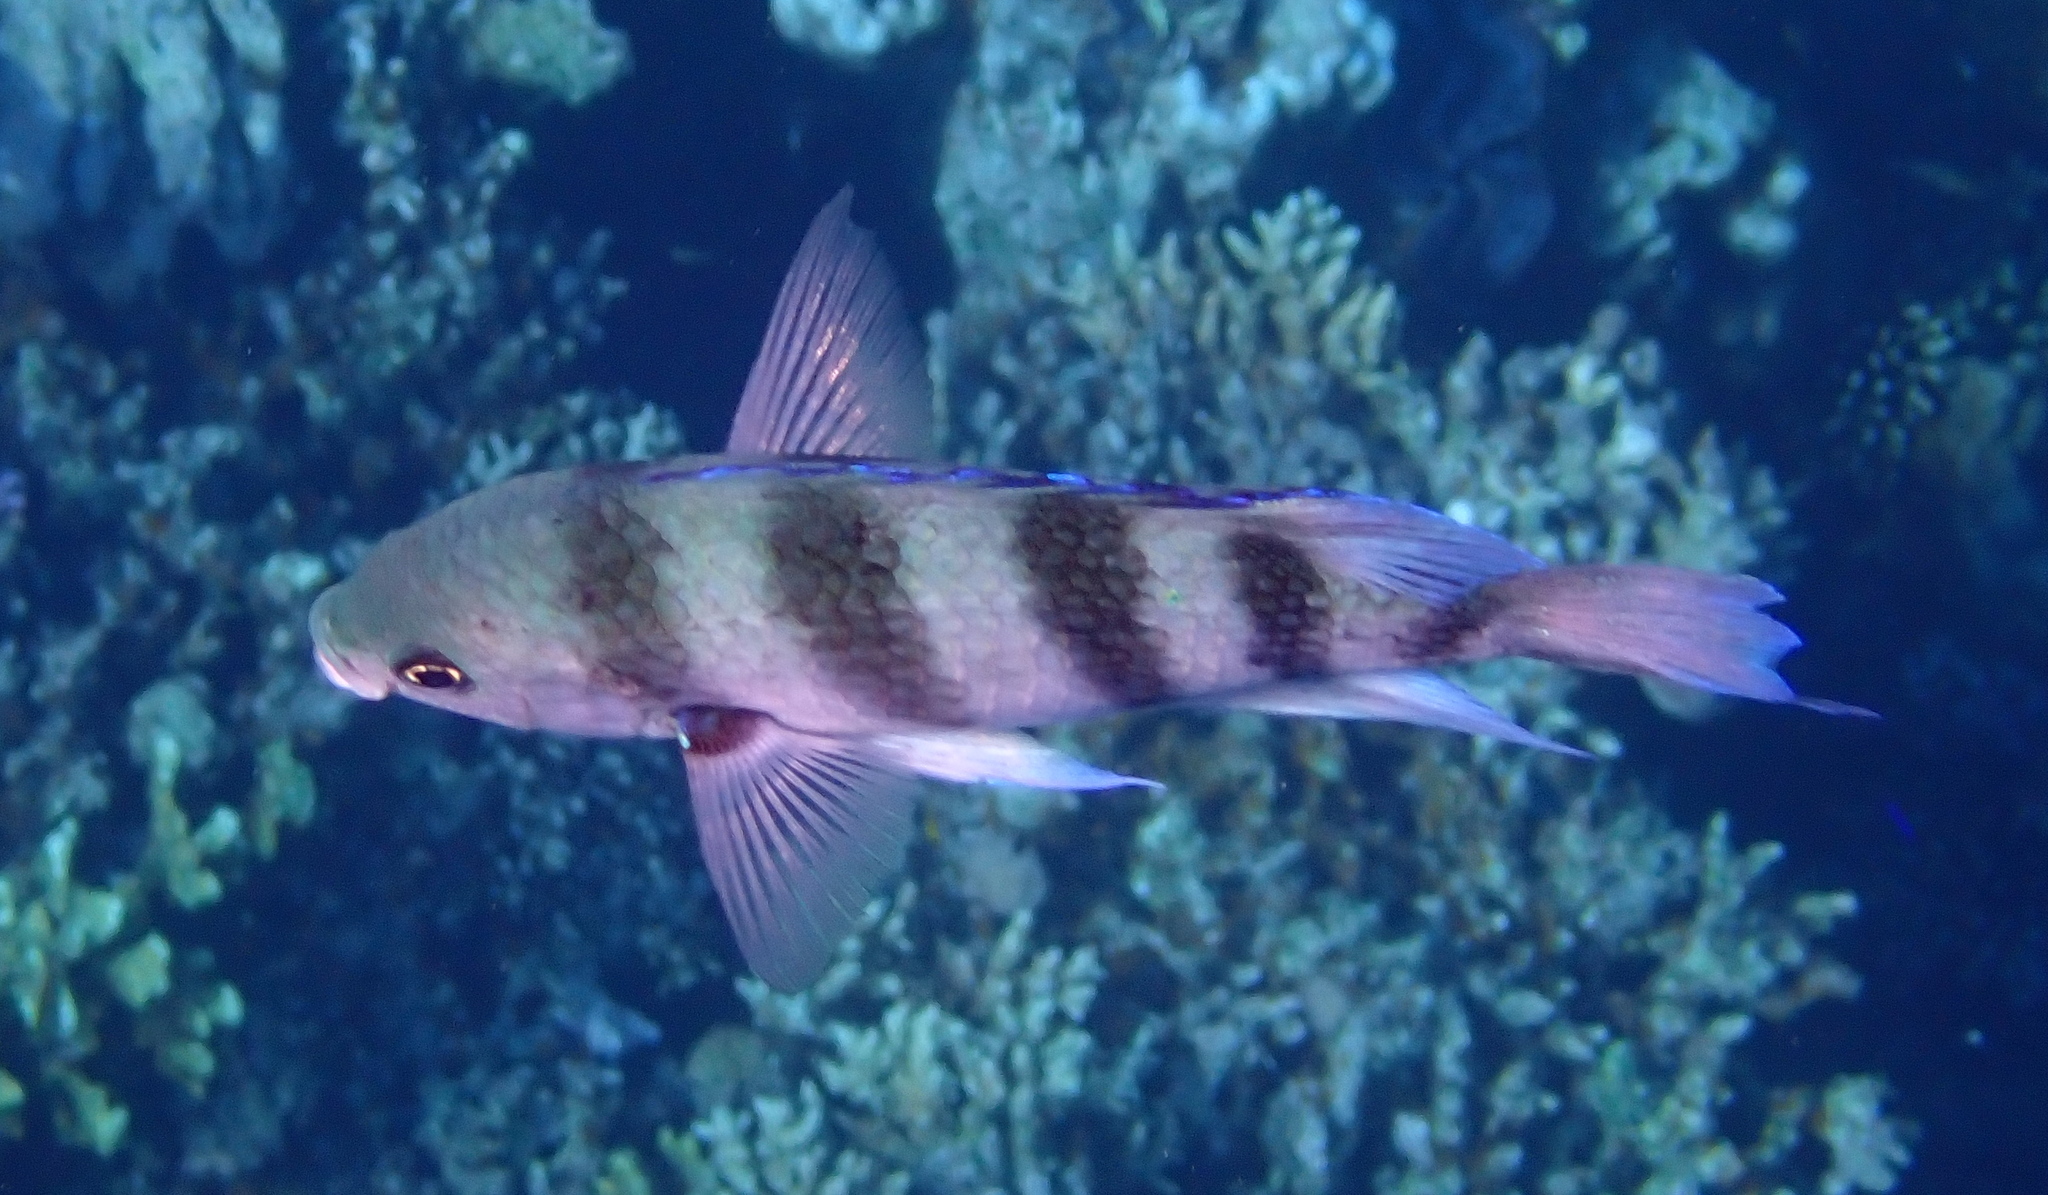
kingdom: Animalia
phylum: Chordata
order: Perciformes
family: Pomacentridae
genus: Abudefduf
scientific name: Abudefduf sexfasciatus
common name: Scissortail sergeant
